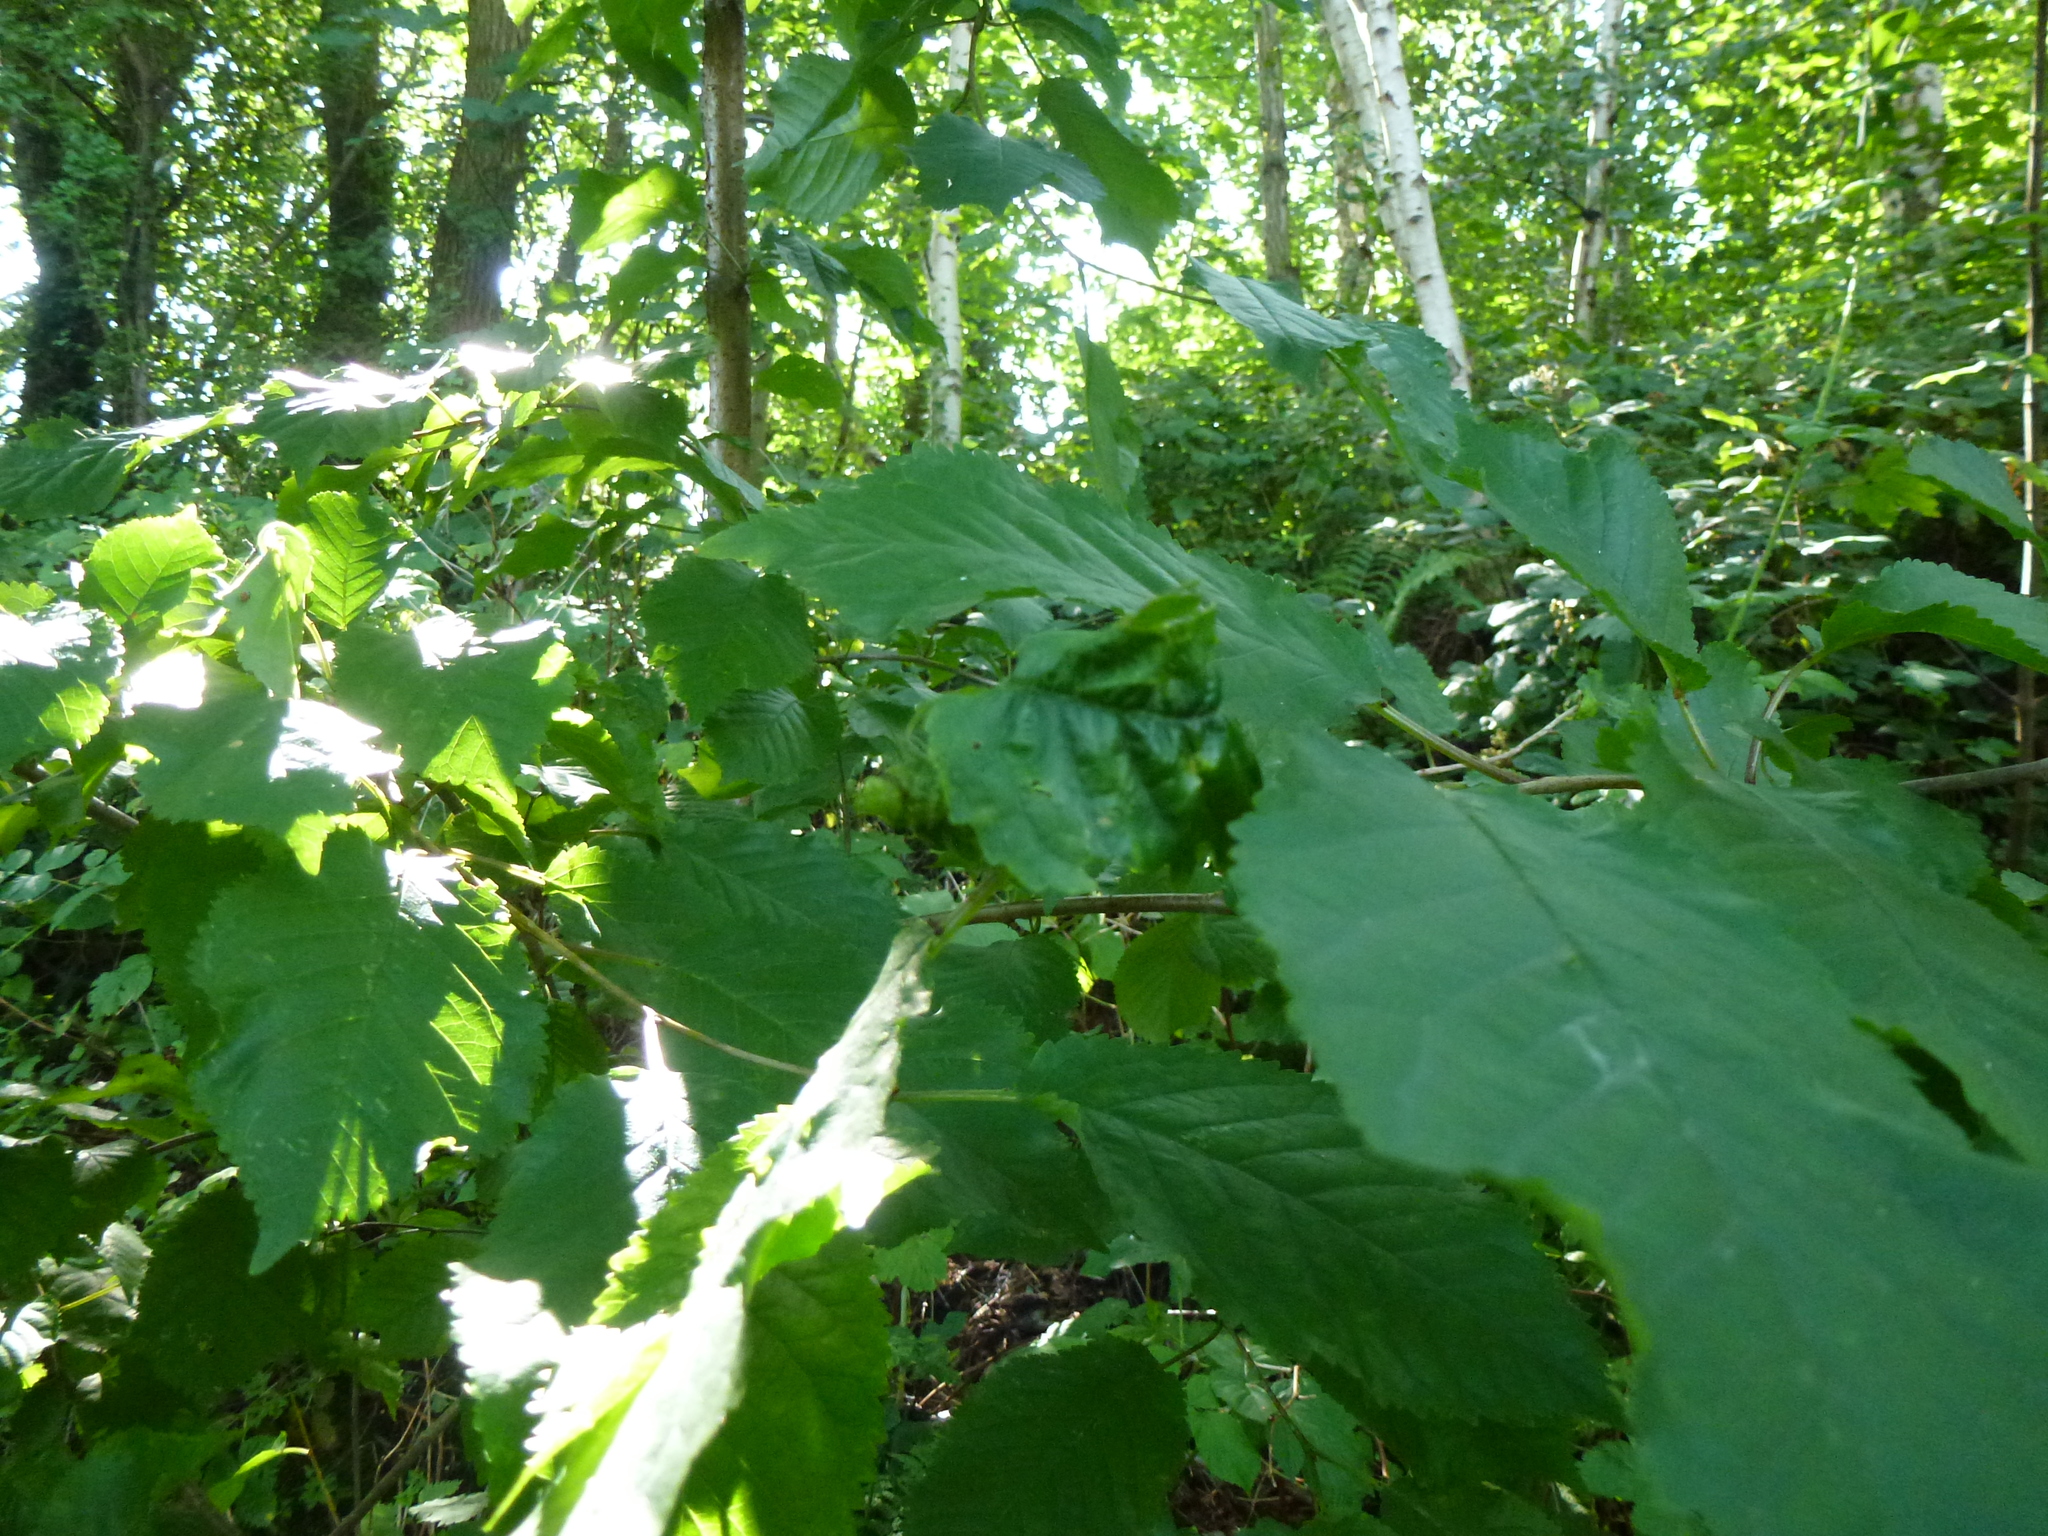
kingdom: Animalia
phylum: Arthropoda
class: Insecta
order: Hemiptera
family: Aphididae
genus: Myzus
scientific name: Myzus cerasi
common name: Black cherry aphid
